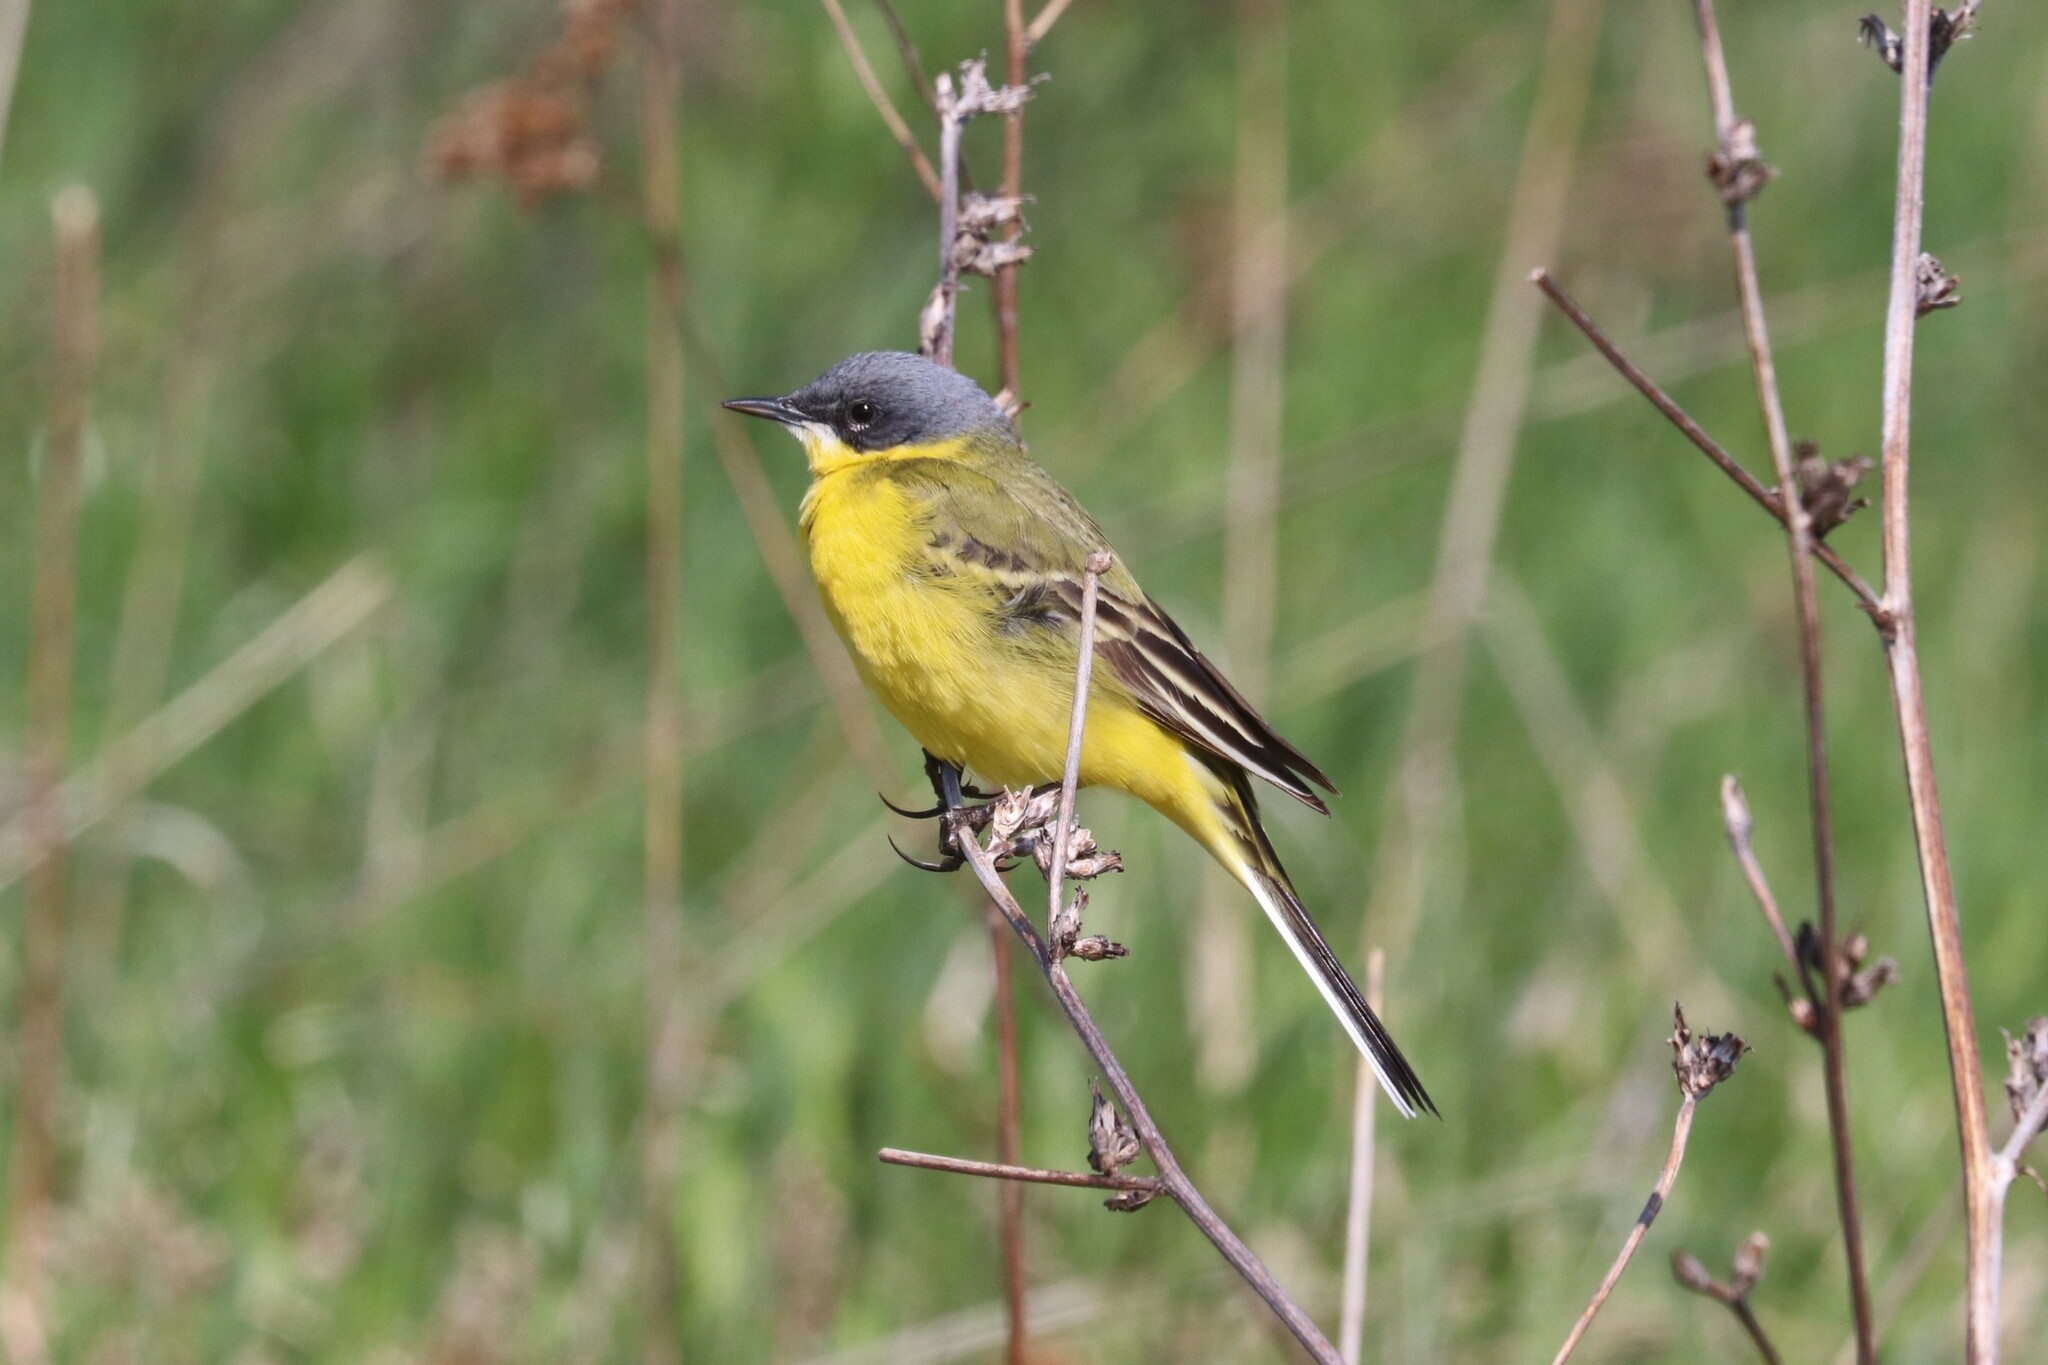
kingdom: Animalia
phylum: Chordata
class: Aves
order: Passeriformes
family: Motacillidae
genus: Motacilla
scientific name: Motacilla flava
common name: Western yellow wagtail
